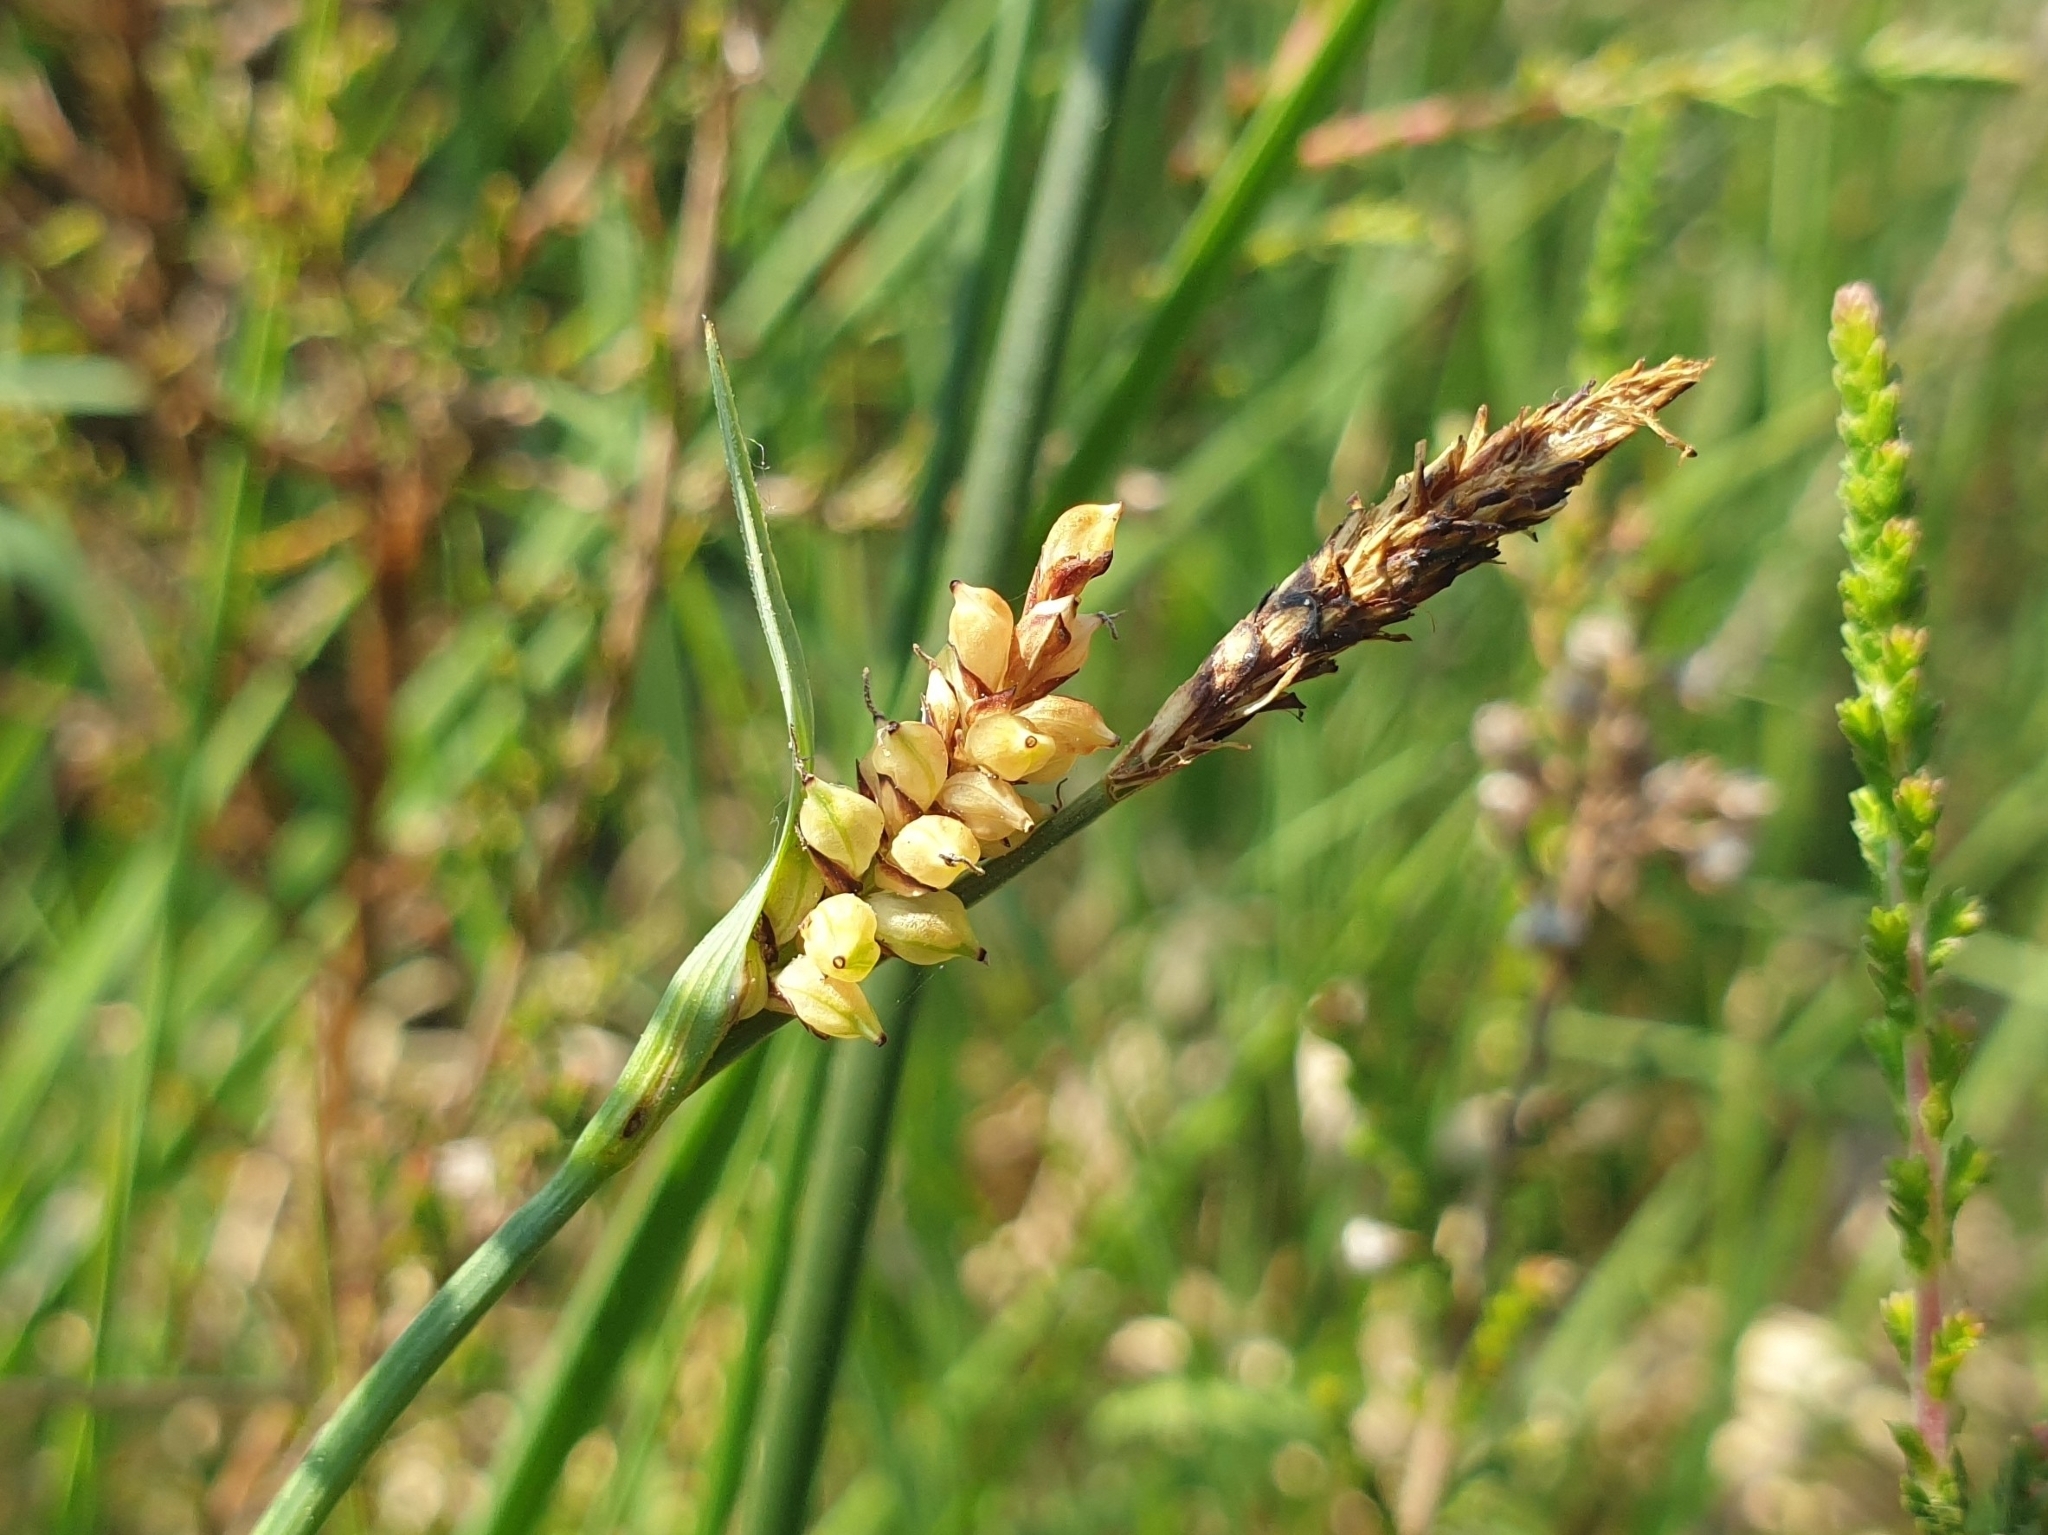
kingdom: Plantae
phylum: Tracheophyta
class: Liliopsida
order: Poales
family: Cyperaceae
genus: Carex
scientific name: Carex panicea
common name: Carnation sedge
